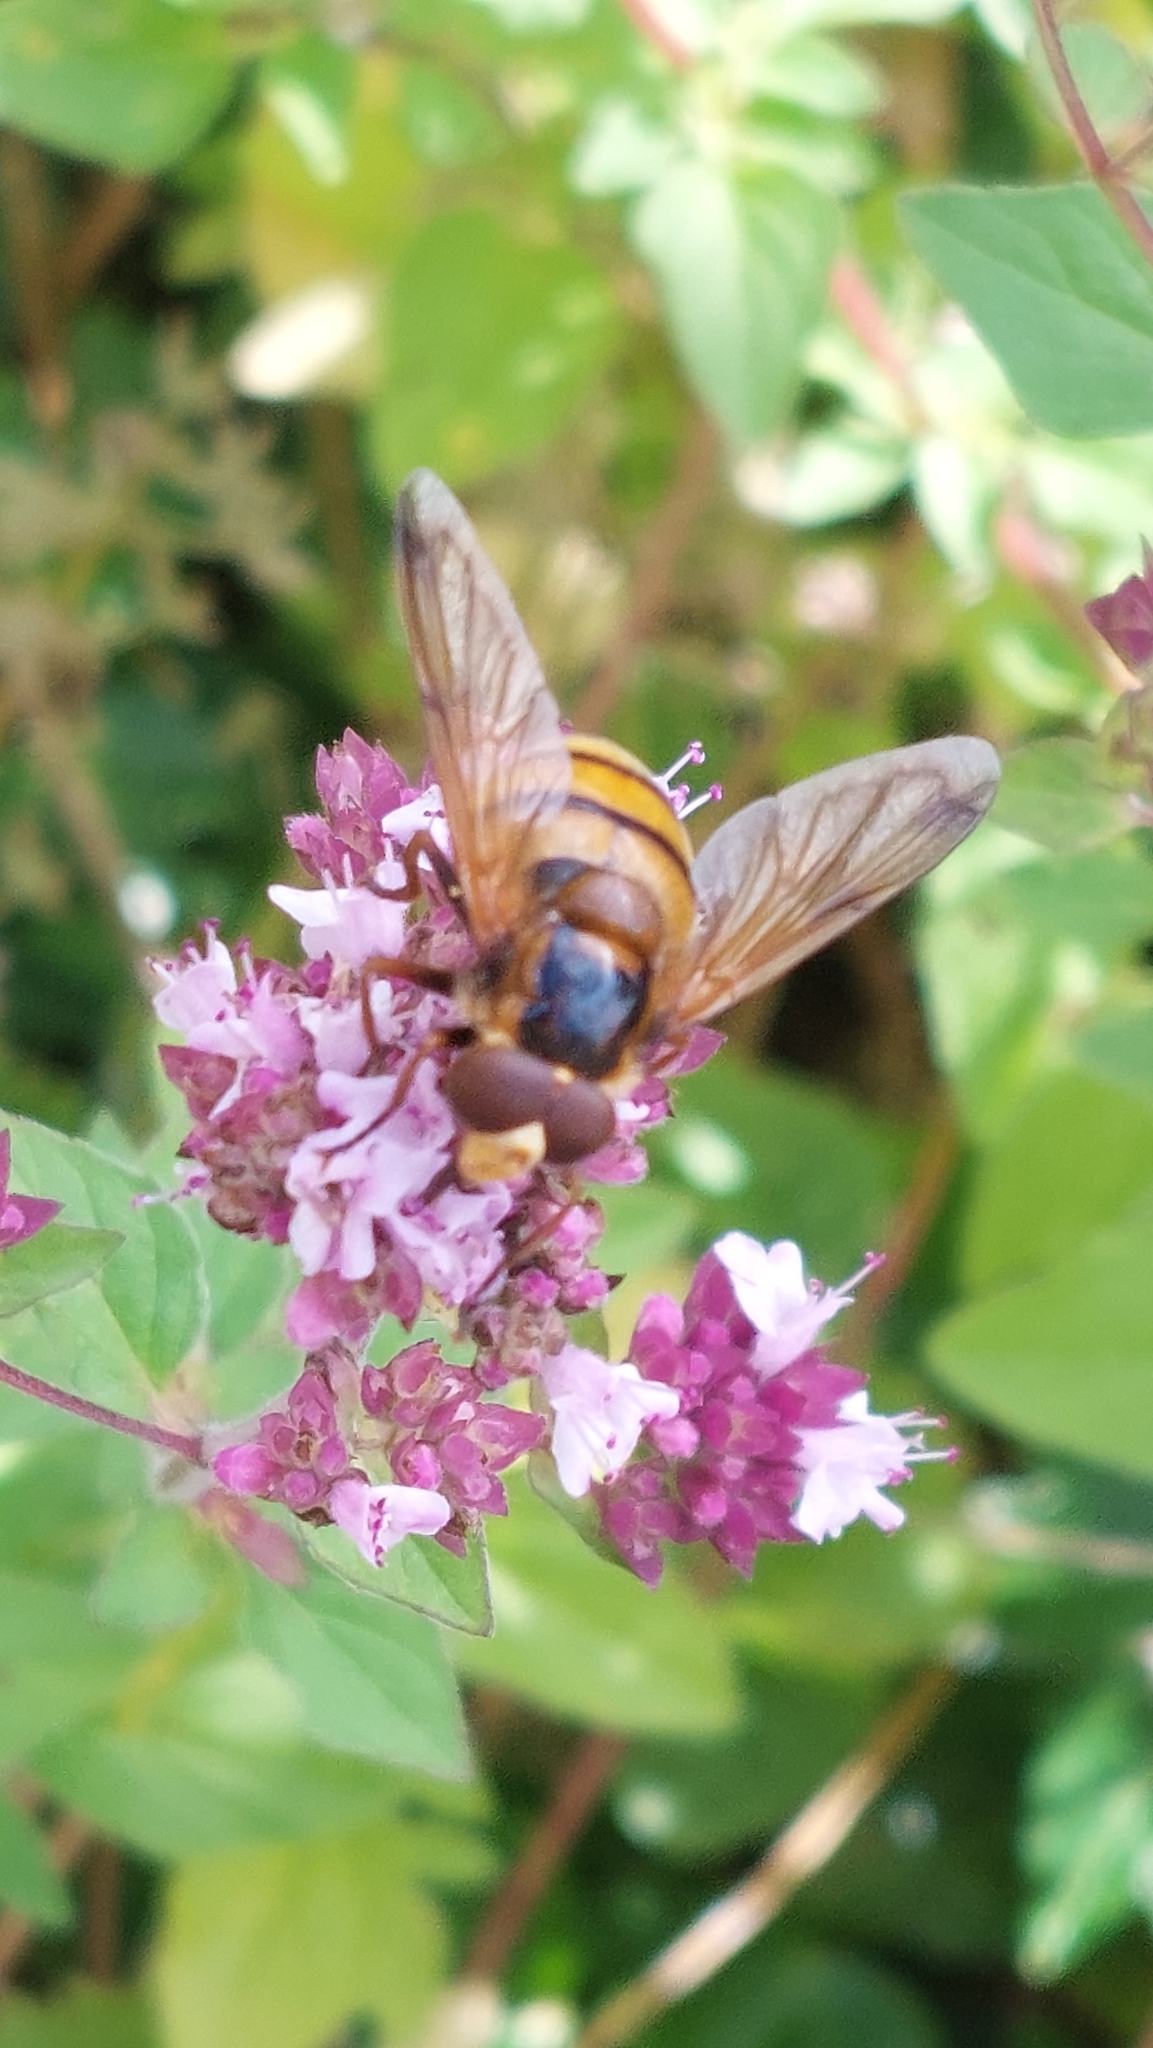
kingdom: Animalia
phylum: Arthropoda
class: Insecta
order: Diptera
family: Syrphidae
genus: Volucella
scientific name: Volucella inanis
